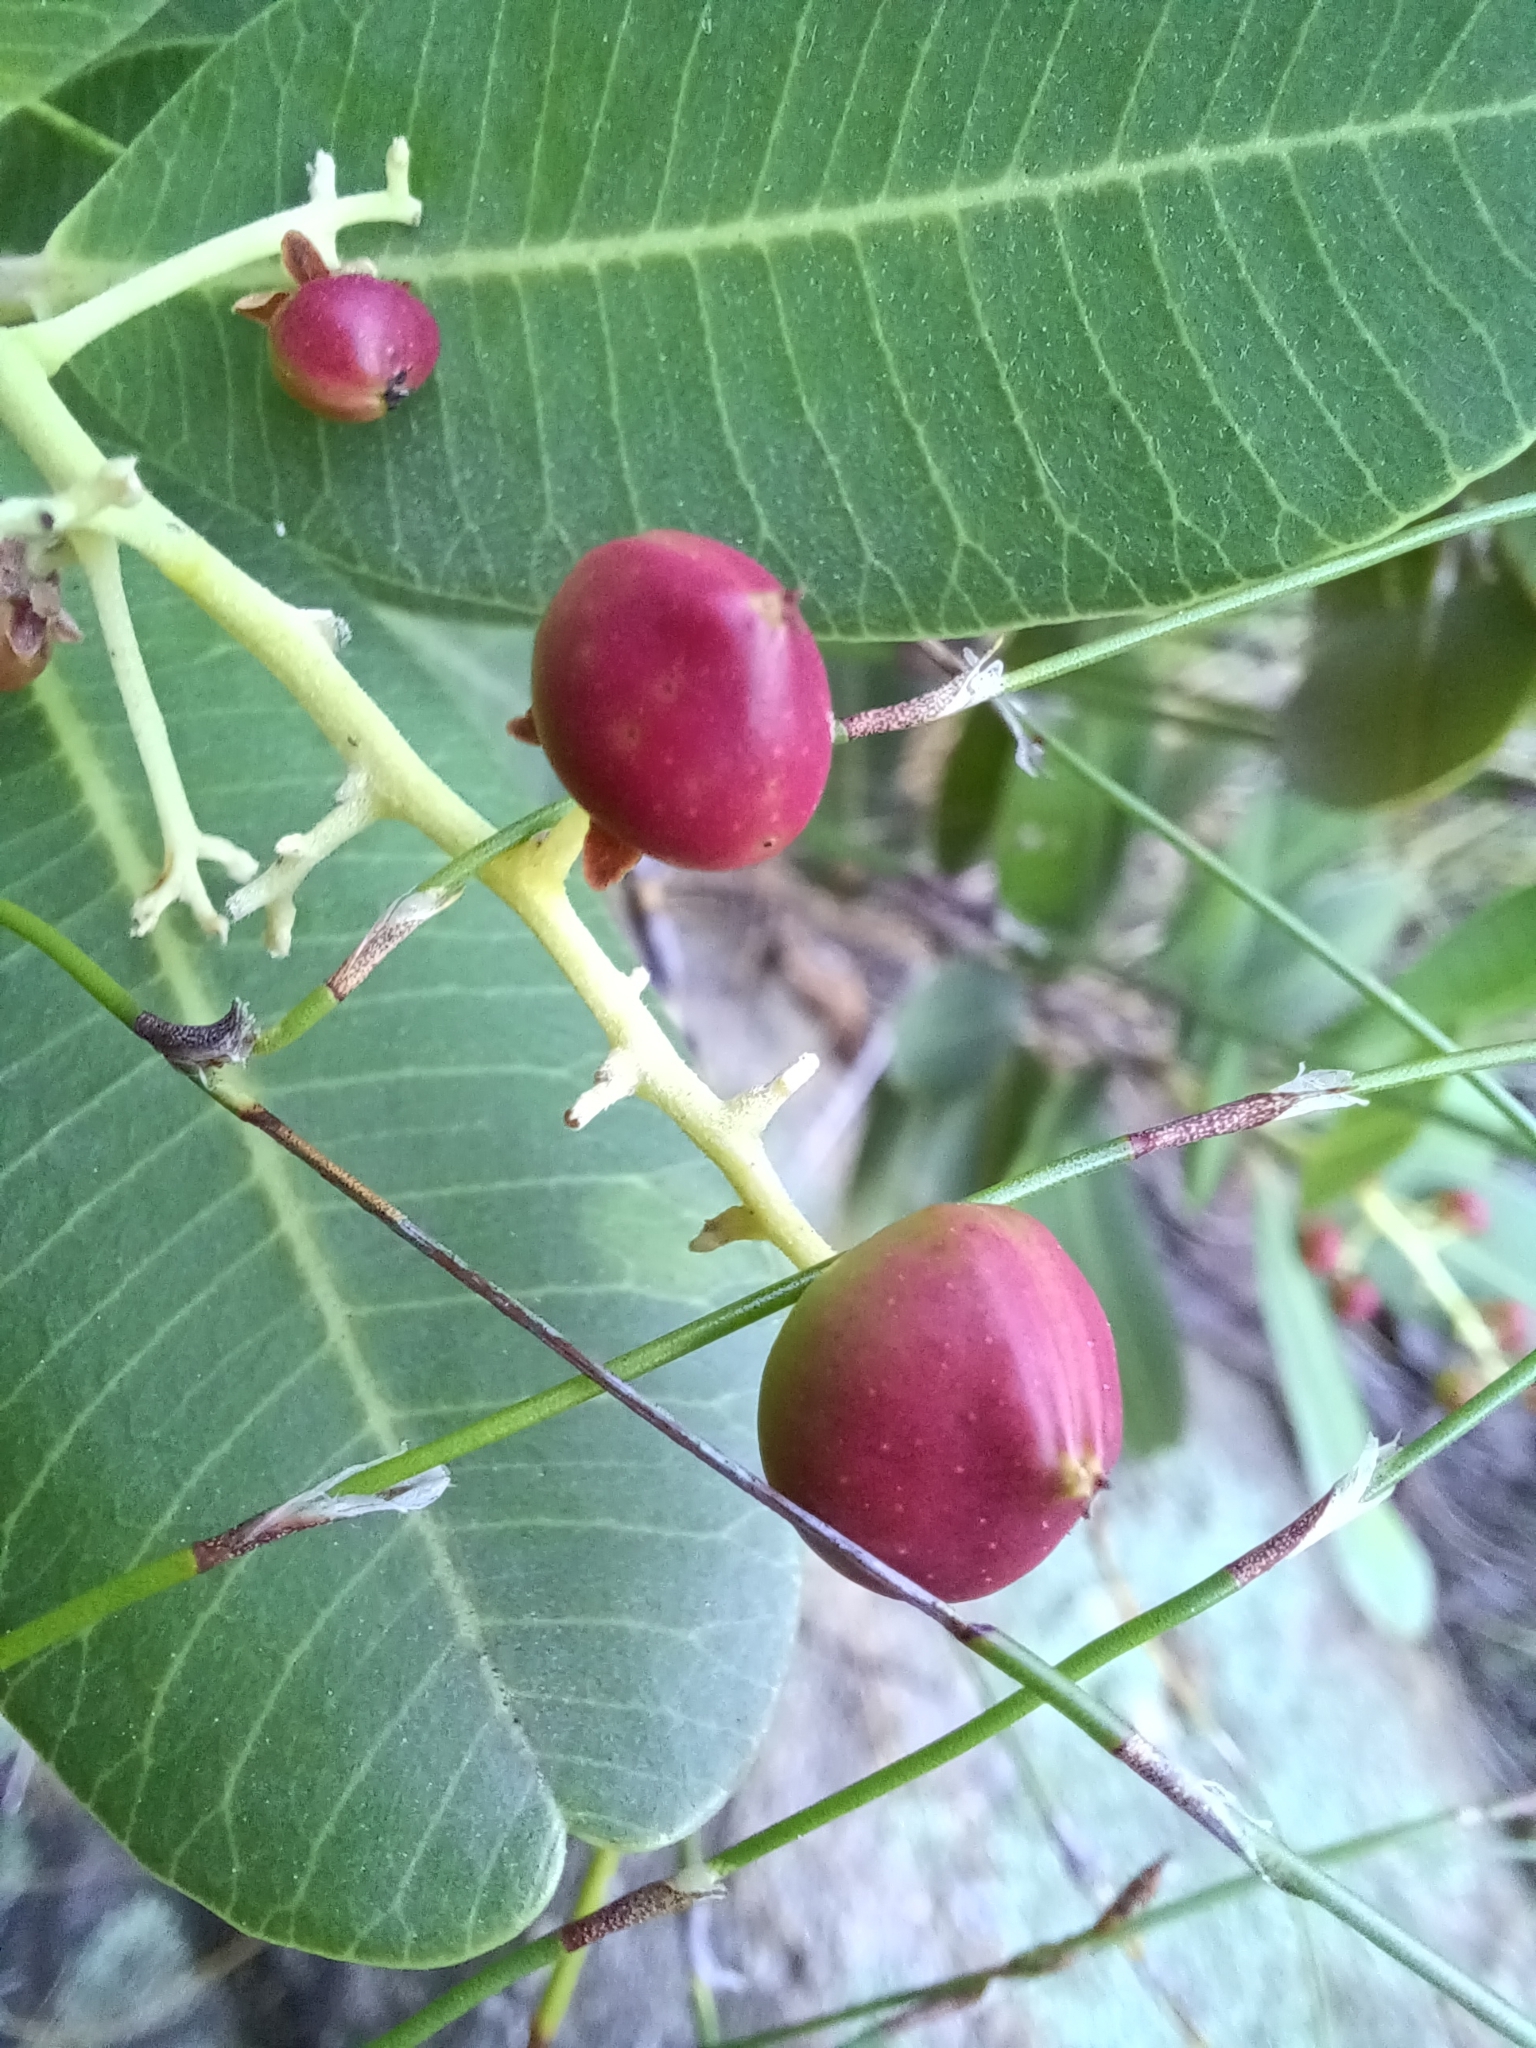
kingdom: Plantae
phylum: Tracheophyta
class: Magnoliopsida
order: Sapindales
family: Anacardiaceae
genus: Heeria
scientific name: Heeria argentea
